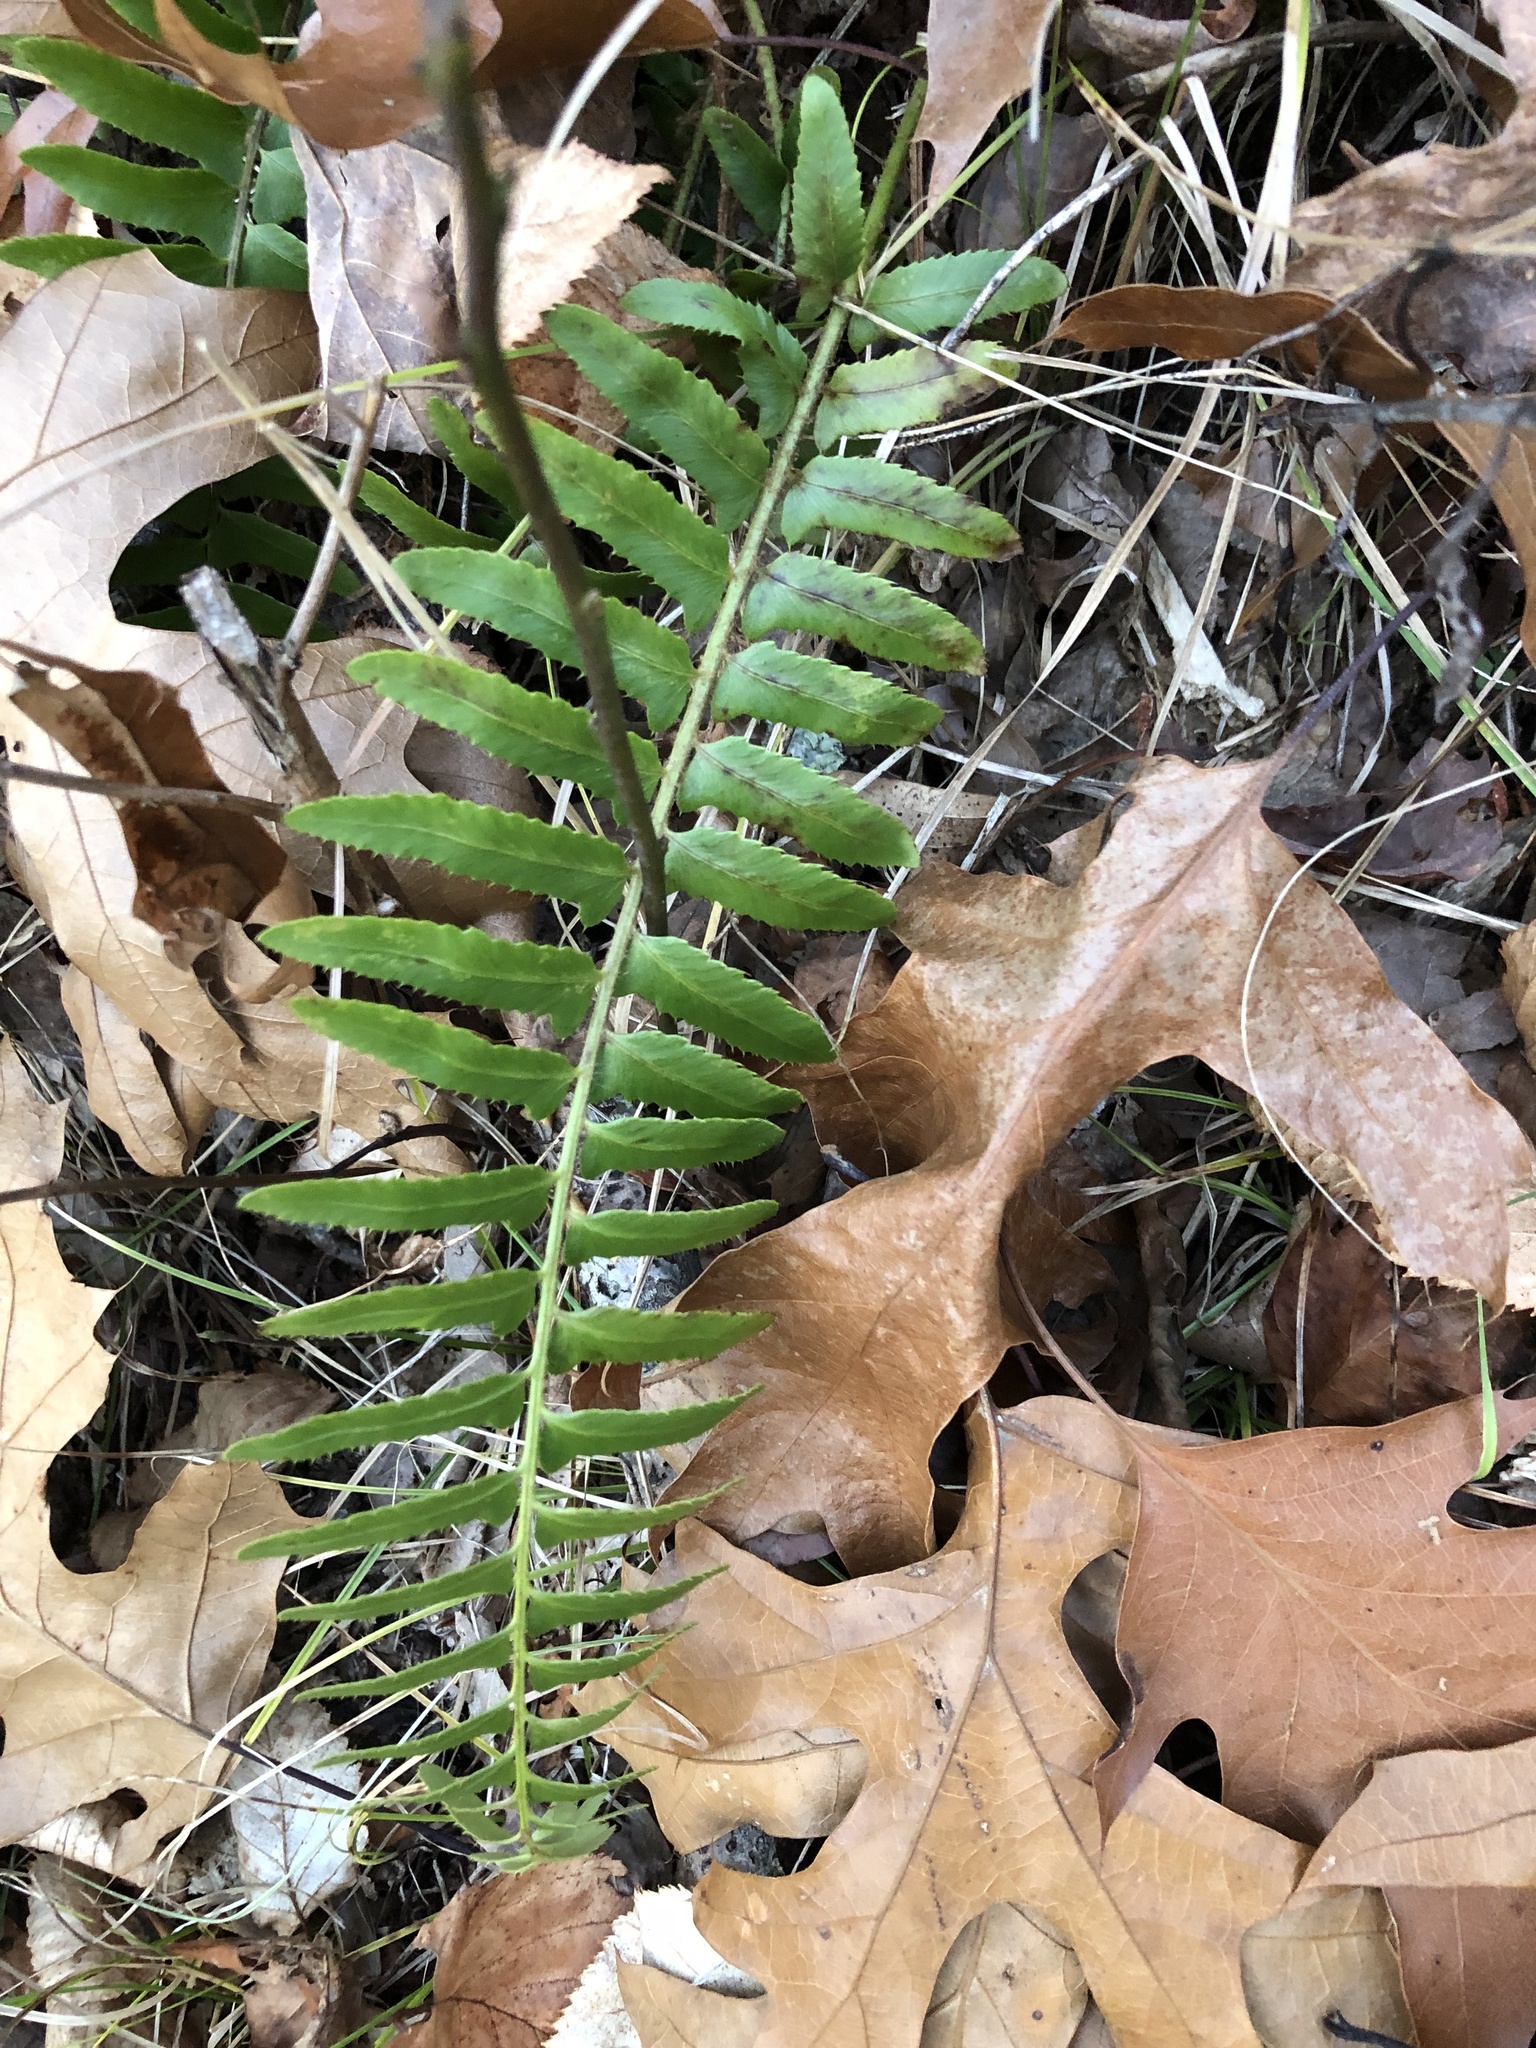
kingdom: Plantae
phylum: Tracheophyta
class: Polypodiopsida
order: Polypodiales
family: Dryopteridaceae
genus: Polystichum
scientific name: Polystichum acrostichoides
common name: Christmas fern
